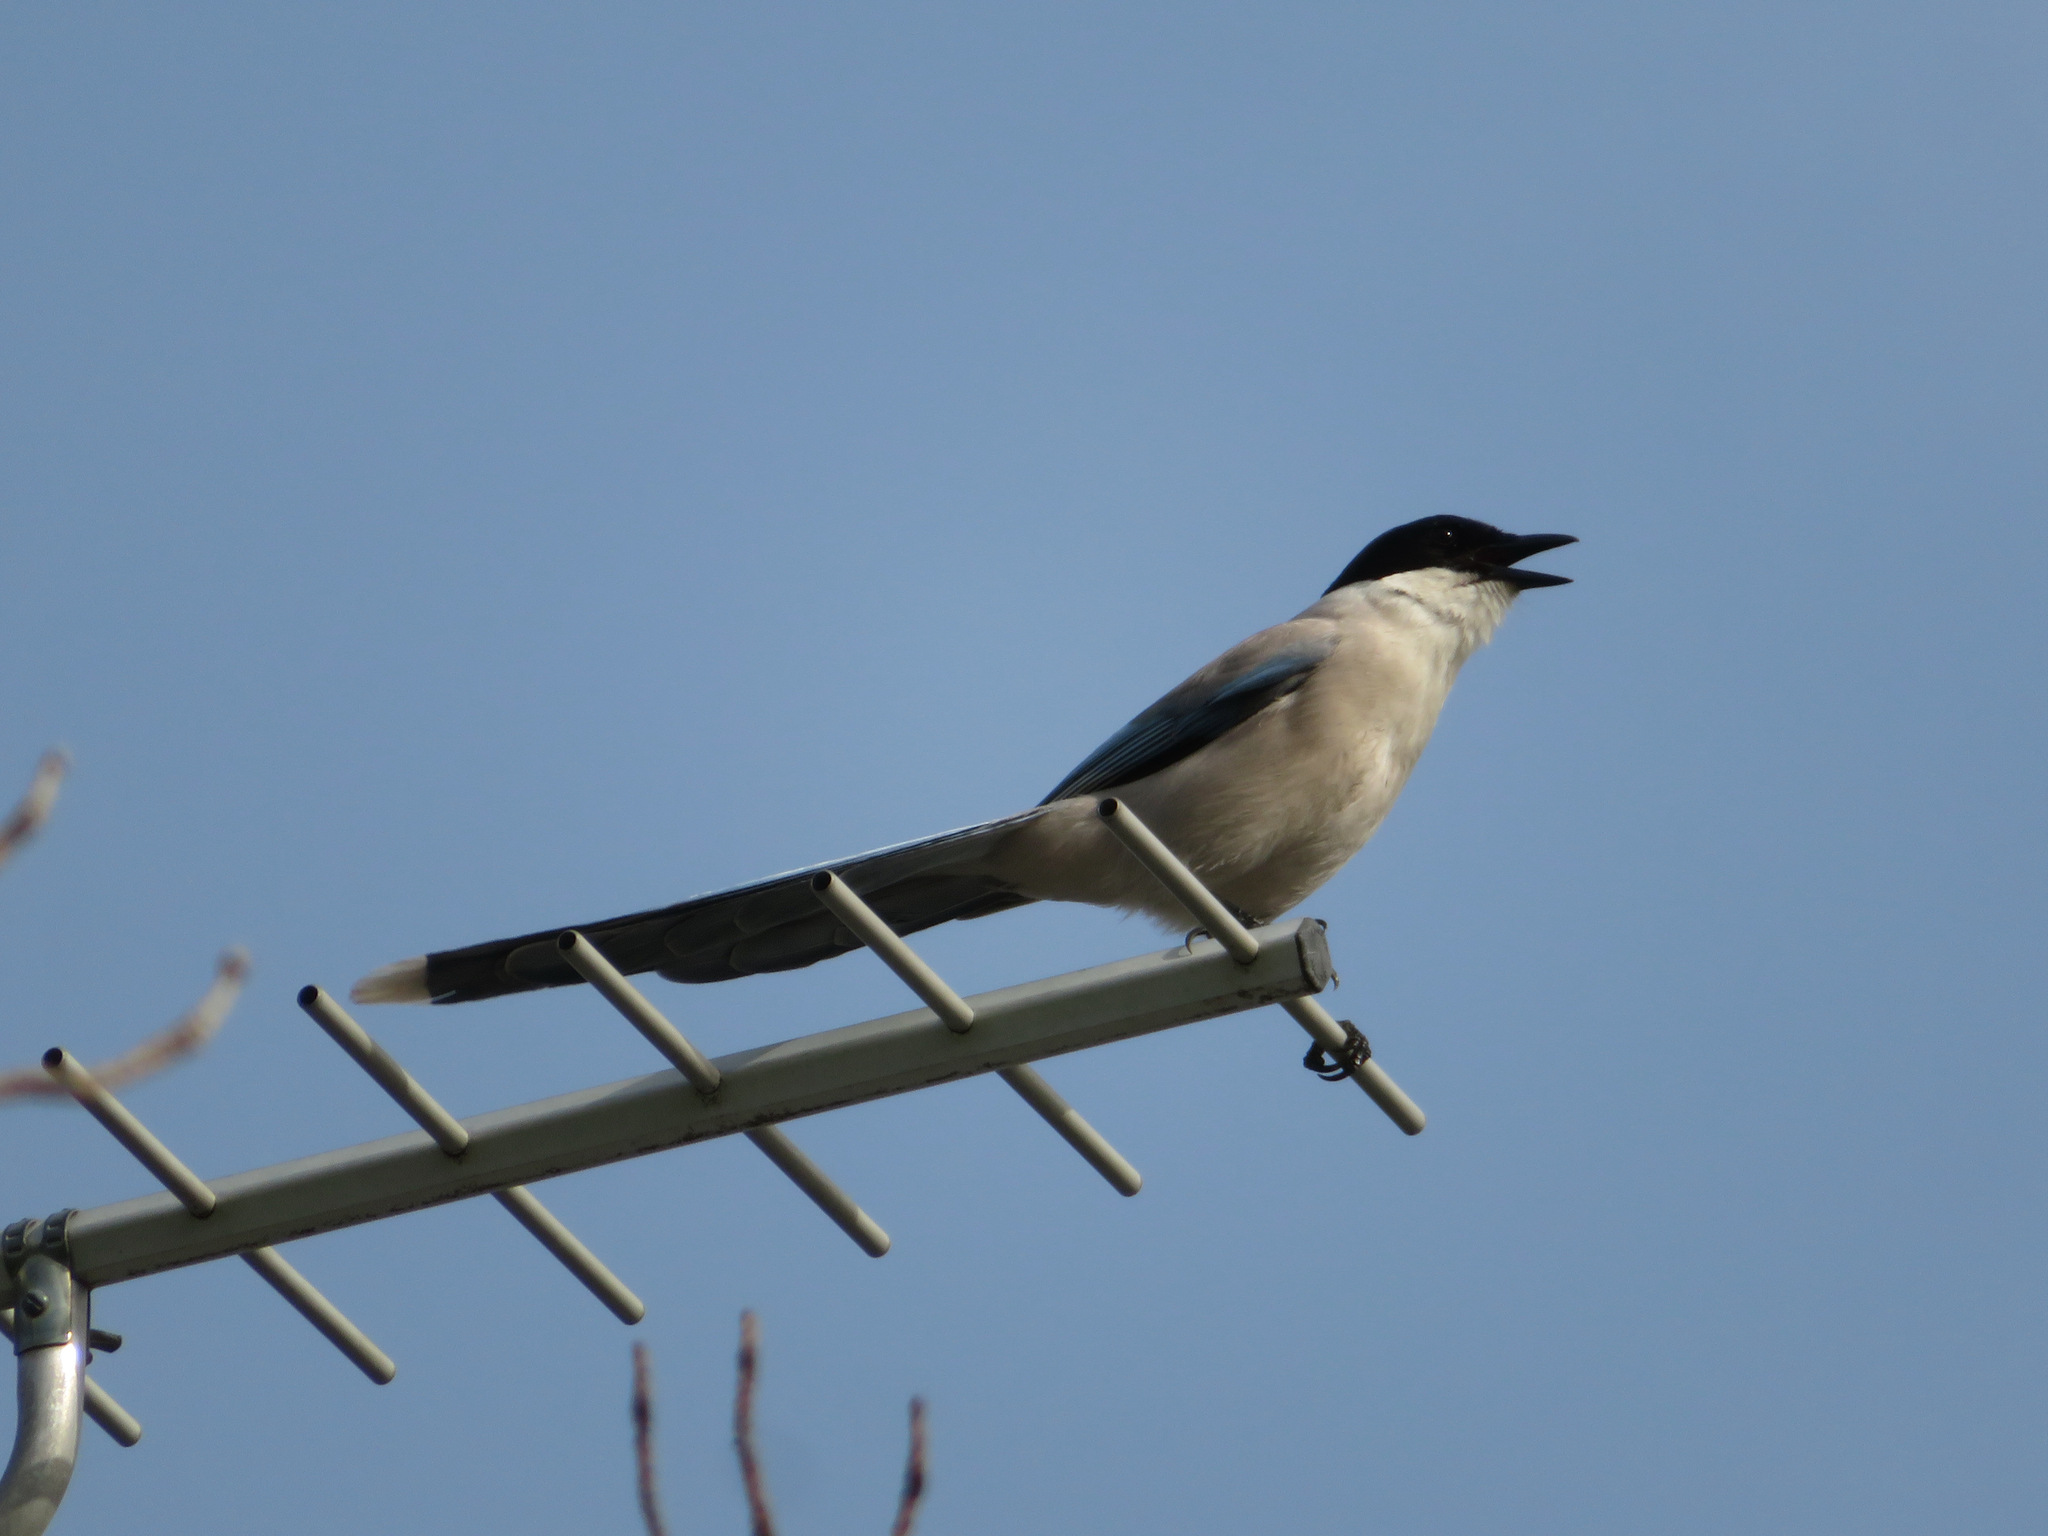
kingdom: Animalia
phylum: Chordata
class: Aves
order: Passeriformes
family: Corvidae
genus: Cyanopica
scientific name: Cyanopica cyanus
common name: Azure-winged magpie
